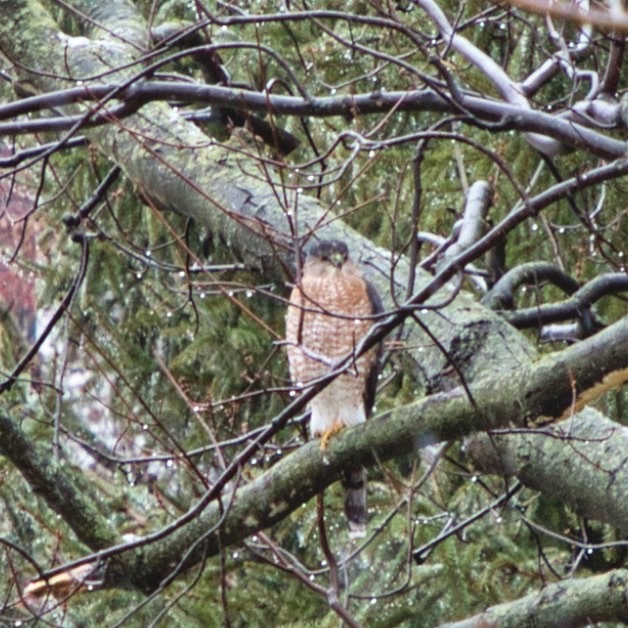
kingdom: Animalia
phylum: Chordata
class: Aves
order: Accipitriformes
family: Accipitridae
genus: Accipiter
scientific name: Accipiter cooperii
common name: Cooper's hawk
